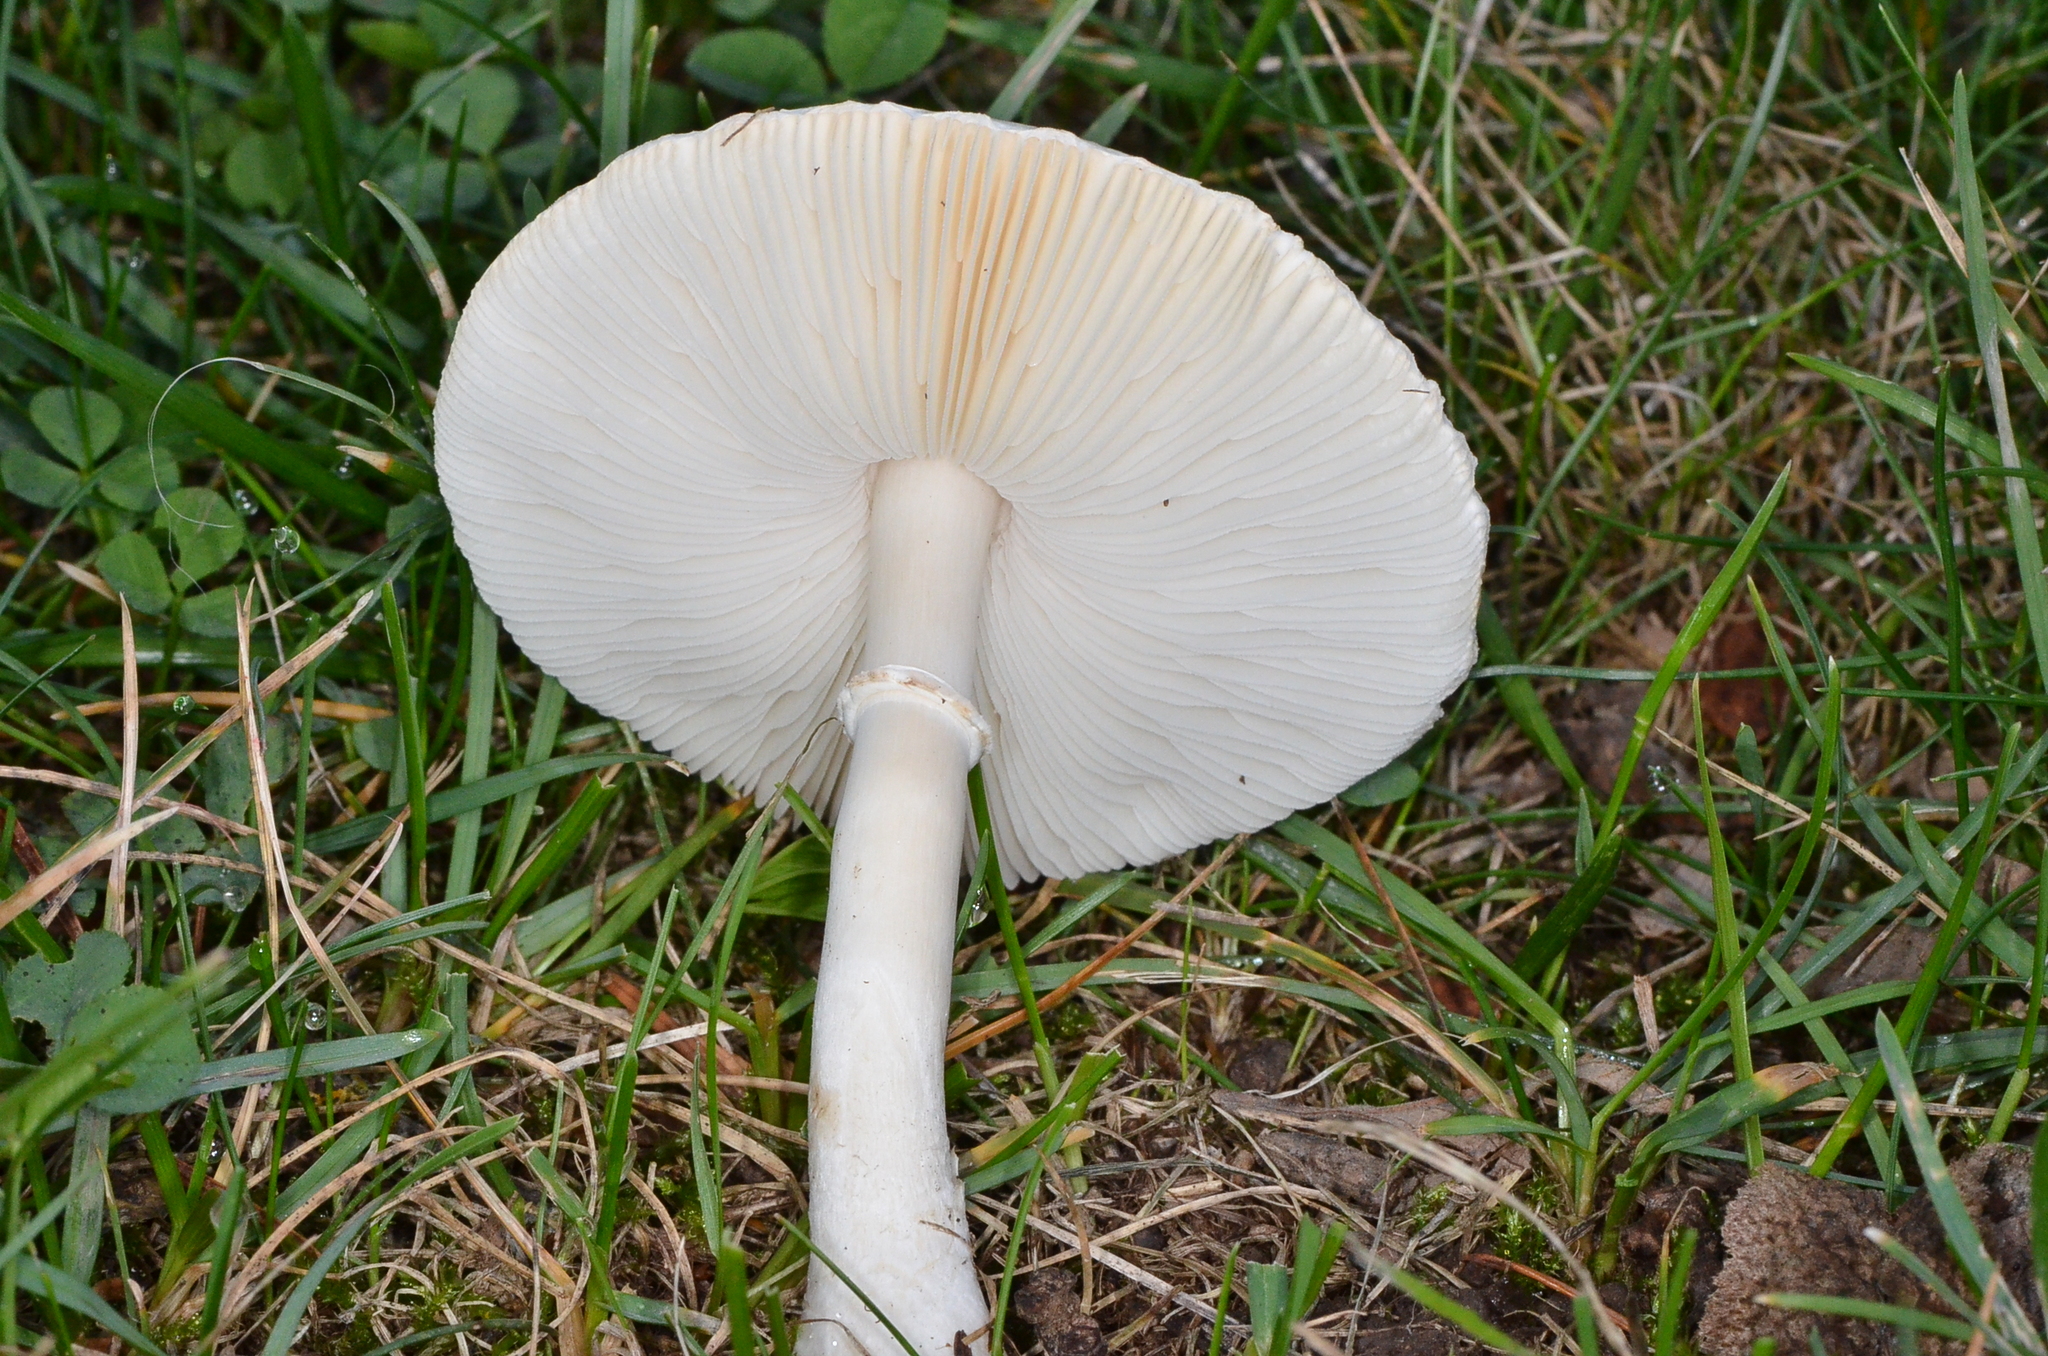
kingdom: Fungi
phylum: Basidiomycota
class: Agaricomycetes
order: Agaricales
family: Agaricaceae
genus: Leucoagaricus
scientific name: Leucoagaricus leucothites
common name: White dapperling
